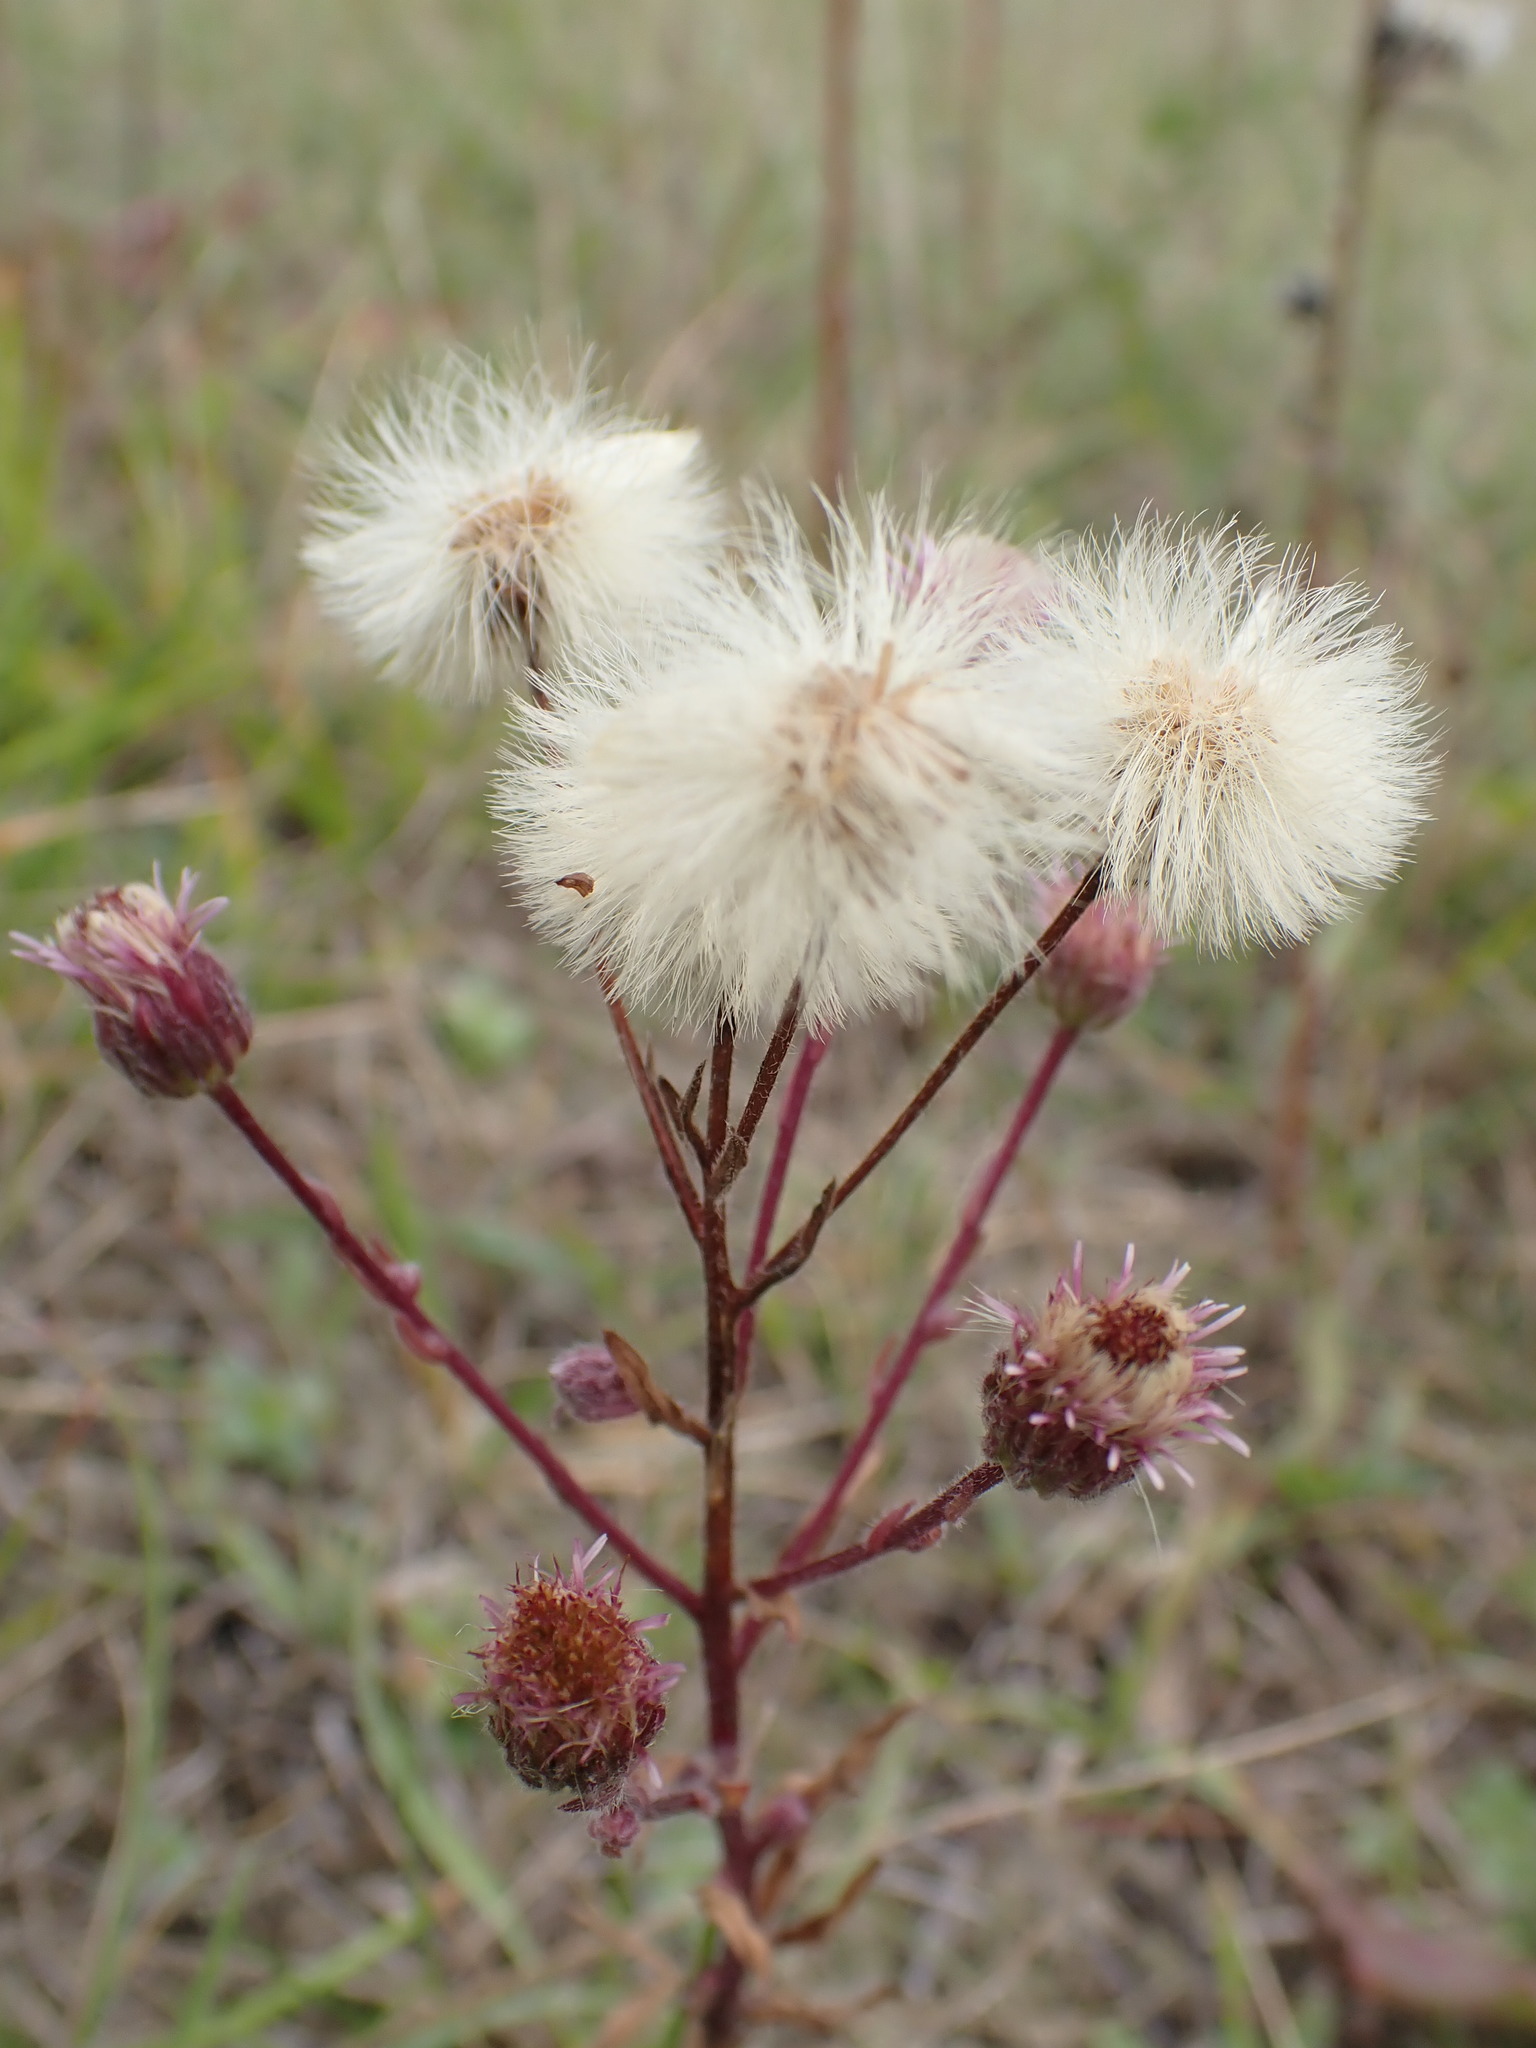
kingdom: Plantae
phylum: Tracheophyta
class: Magnoliopsida
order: Asterales
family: Asteraceae
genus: Erigeron
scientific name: Erigeron acris
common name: Blue fleabane
